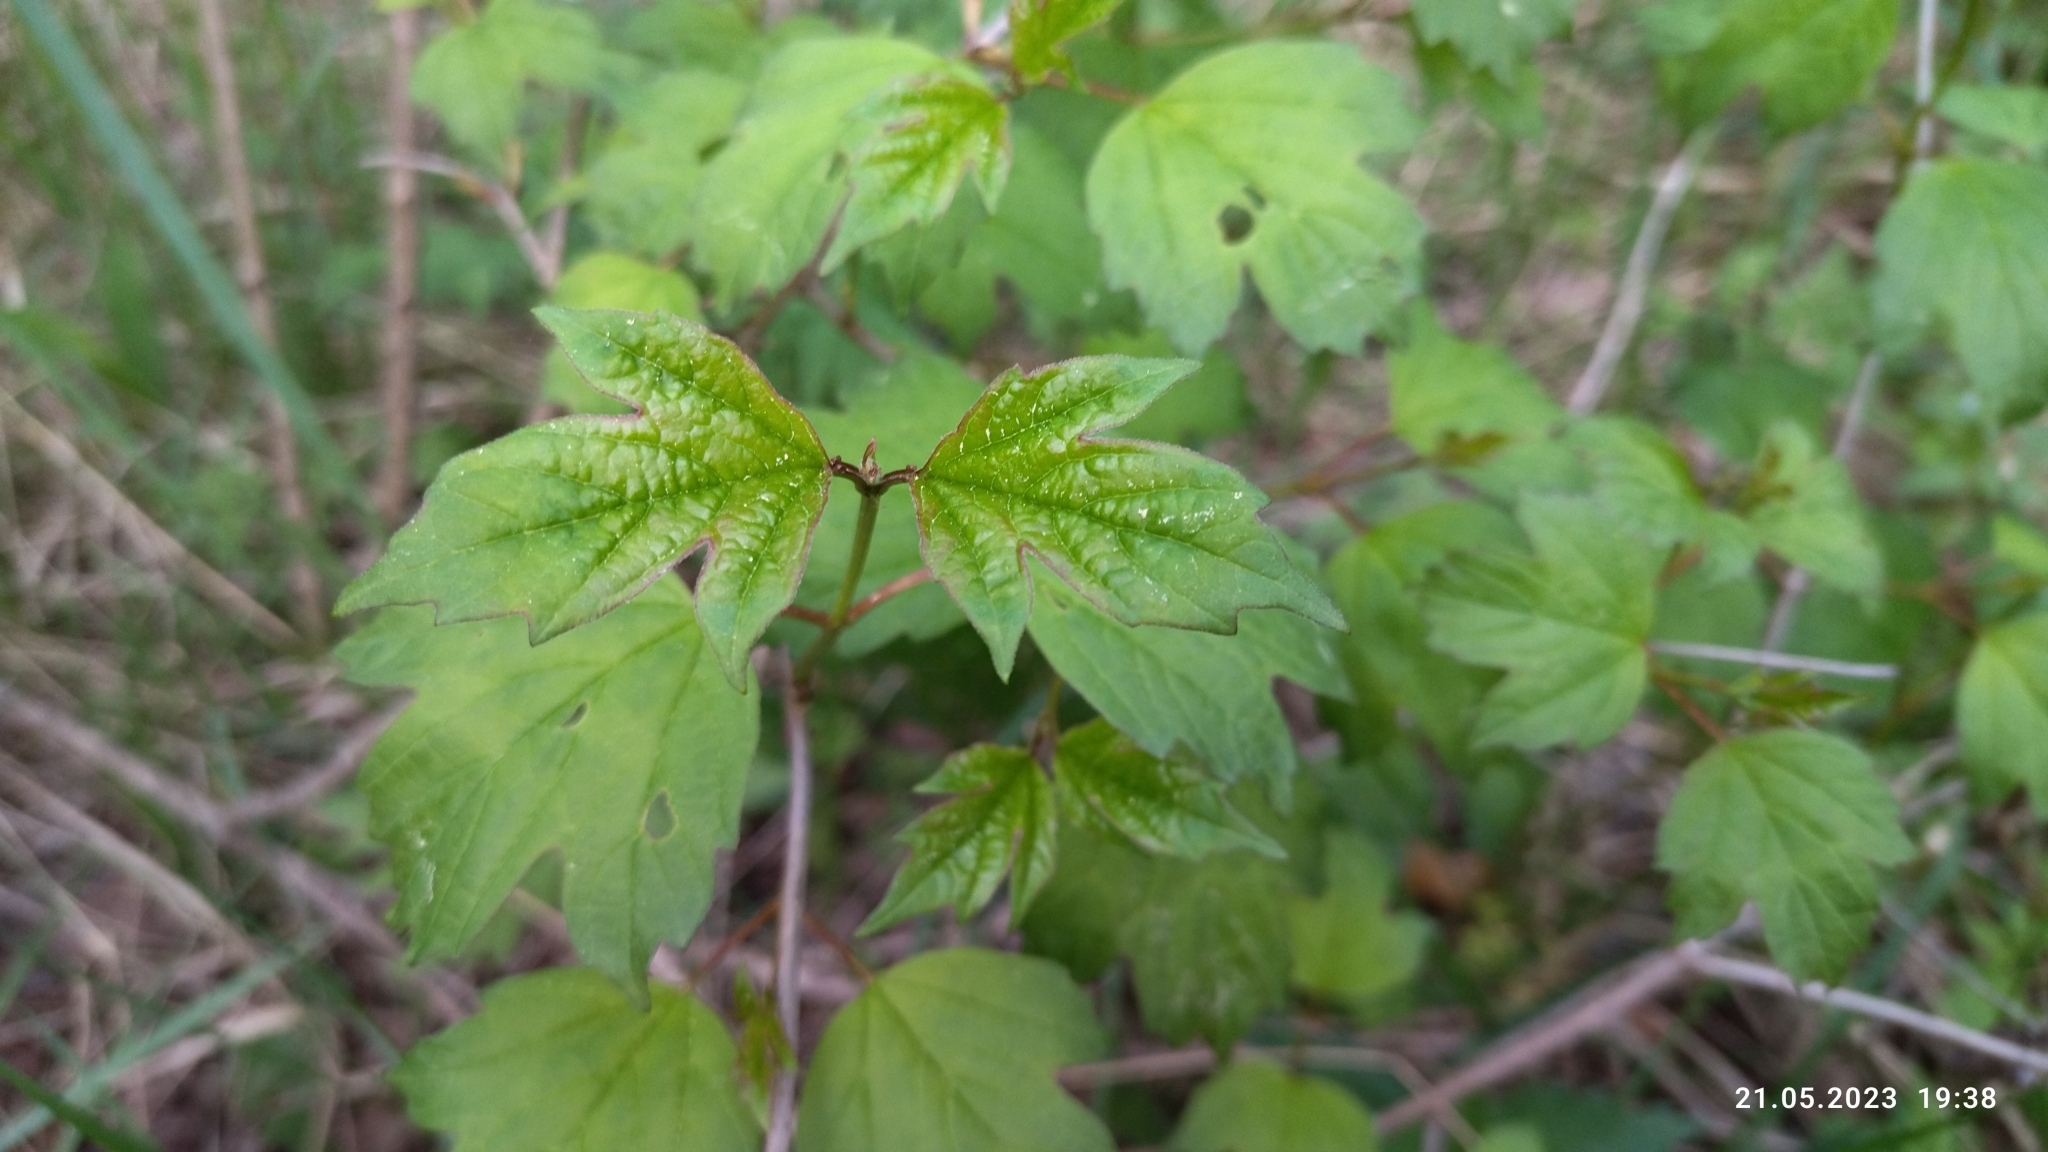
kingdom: Plantae
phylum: Tracheophyta
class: Magnoliopsida
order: Dipsacales
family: Viburnaceae
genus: Viburnum
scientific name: Viburnum opulus
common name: Guelder-rose
